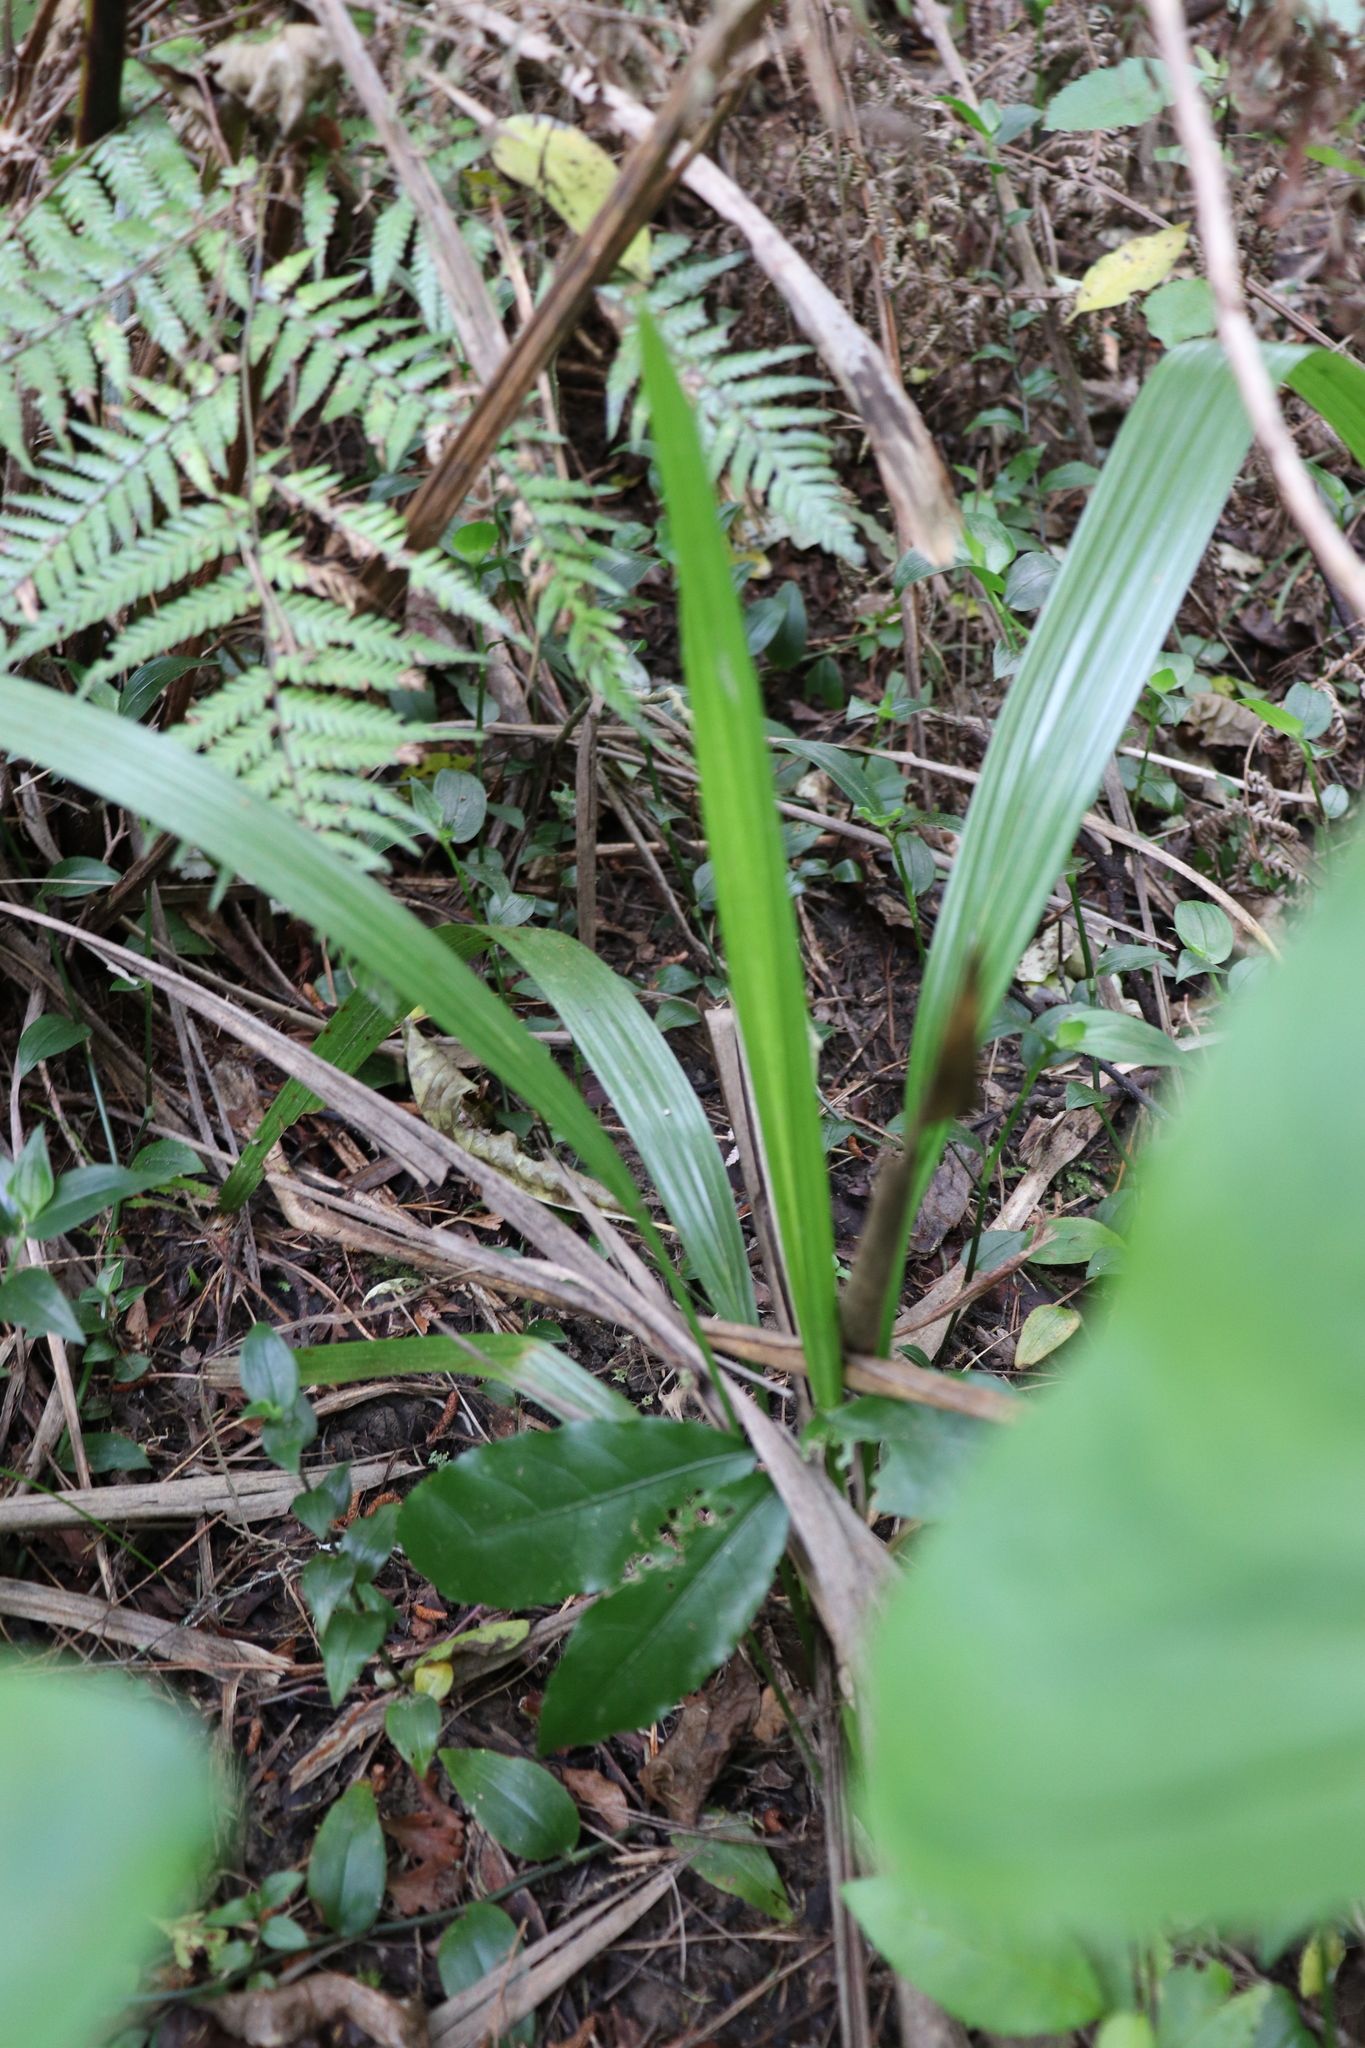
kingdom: Plantae
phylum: Tracheophyta
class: Liliopsida
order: Arecales
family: Arecaceae
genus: Phoenix
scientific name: Phoenix canariensis
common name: Canary island date palm
